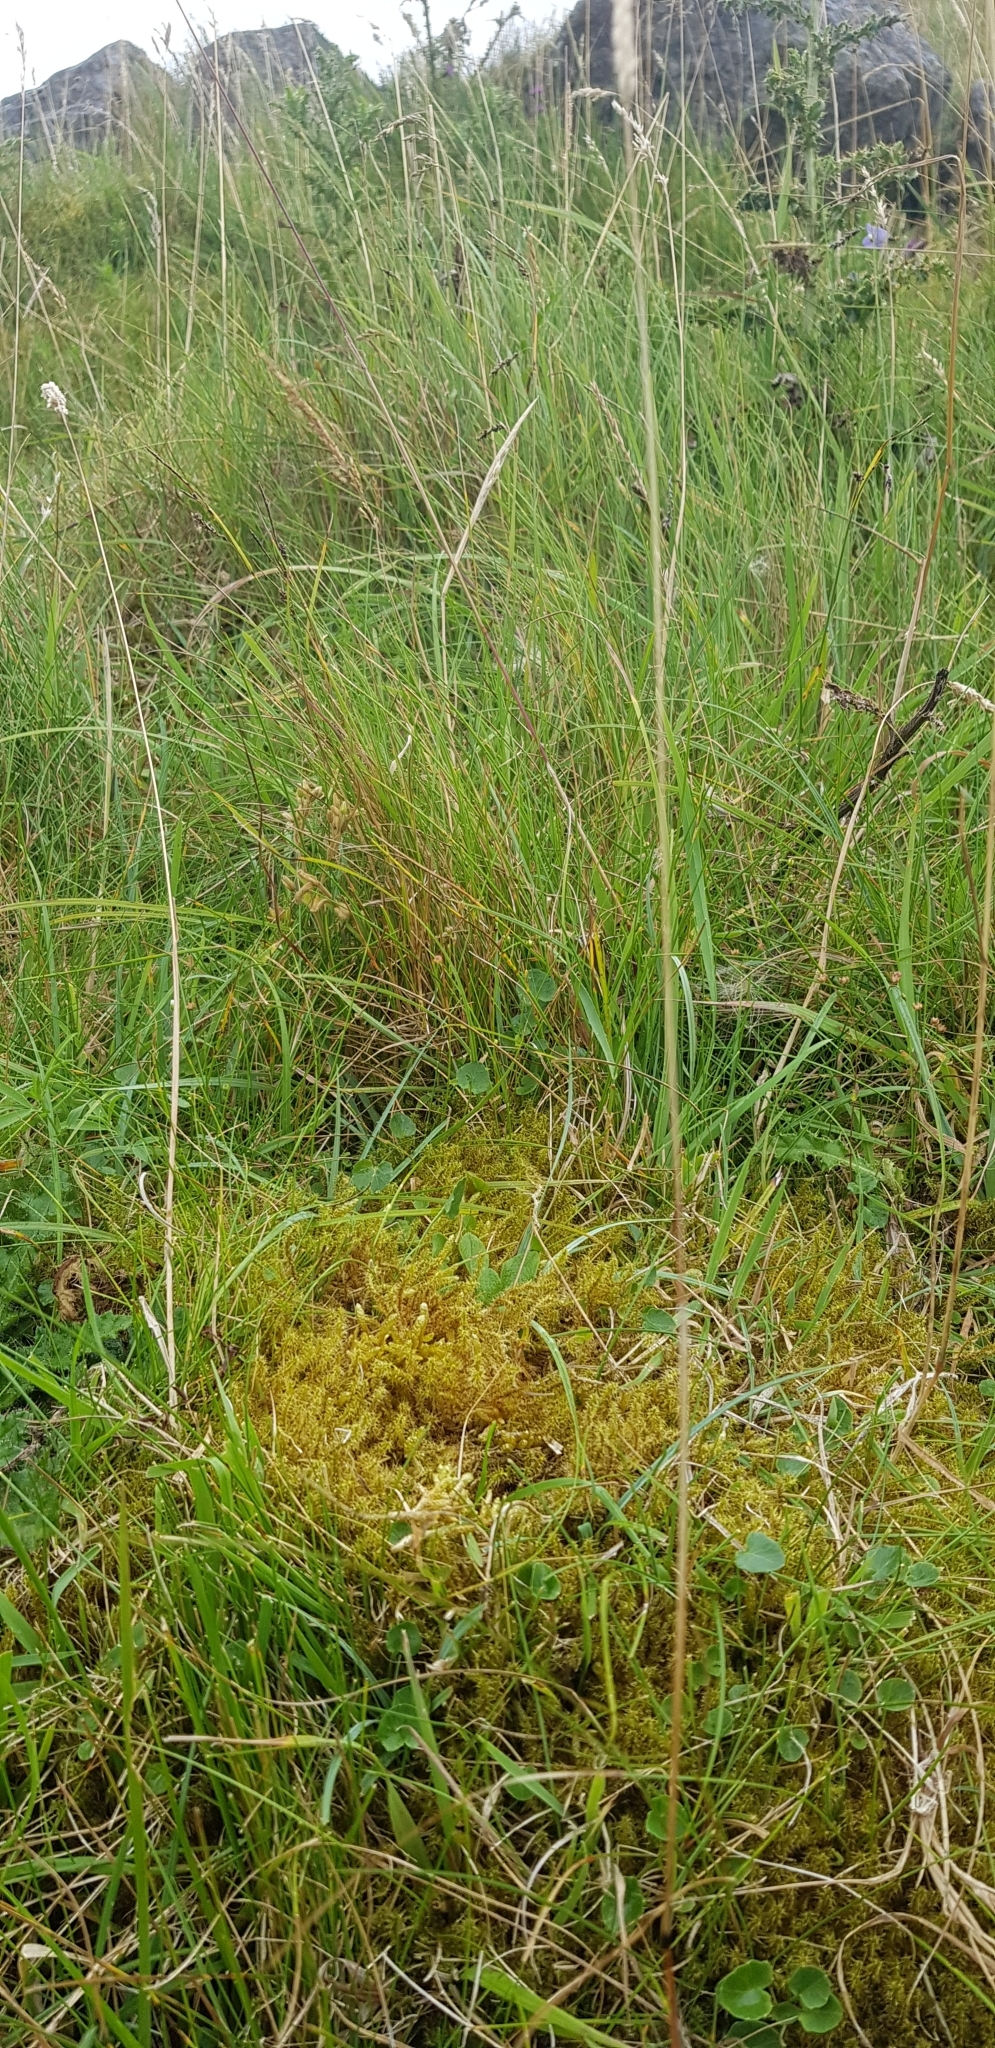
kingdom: Plantae
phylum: Bryophyta
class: Bryopsida
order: Hypnales
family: Brachytheciaceae
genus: Pseudoscleropodium
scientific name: Pseudoscleropodium purum
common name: Neat feather-moss
